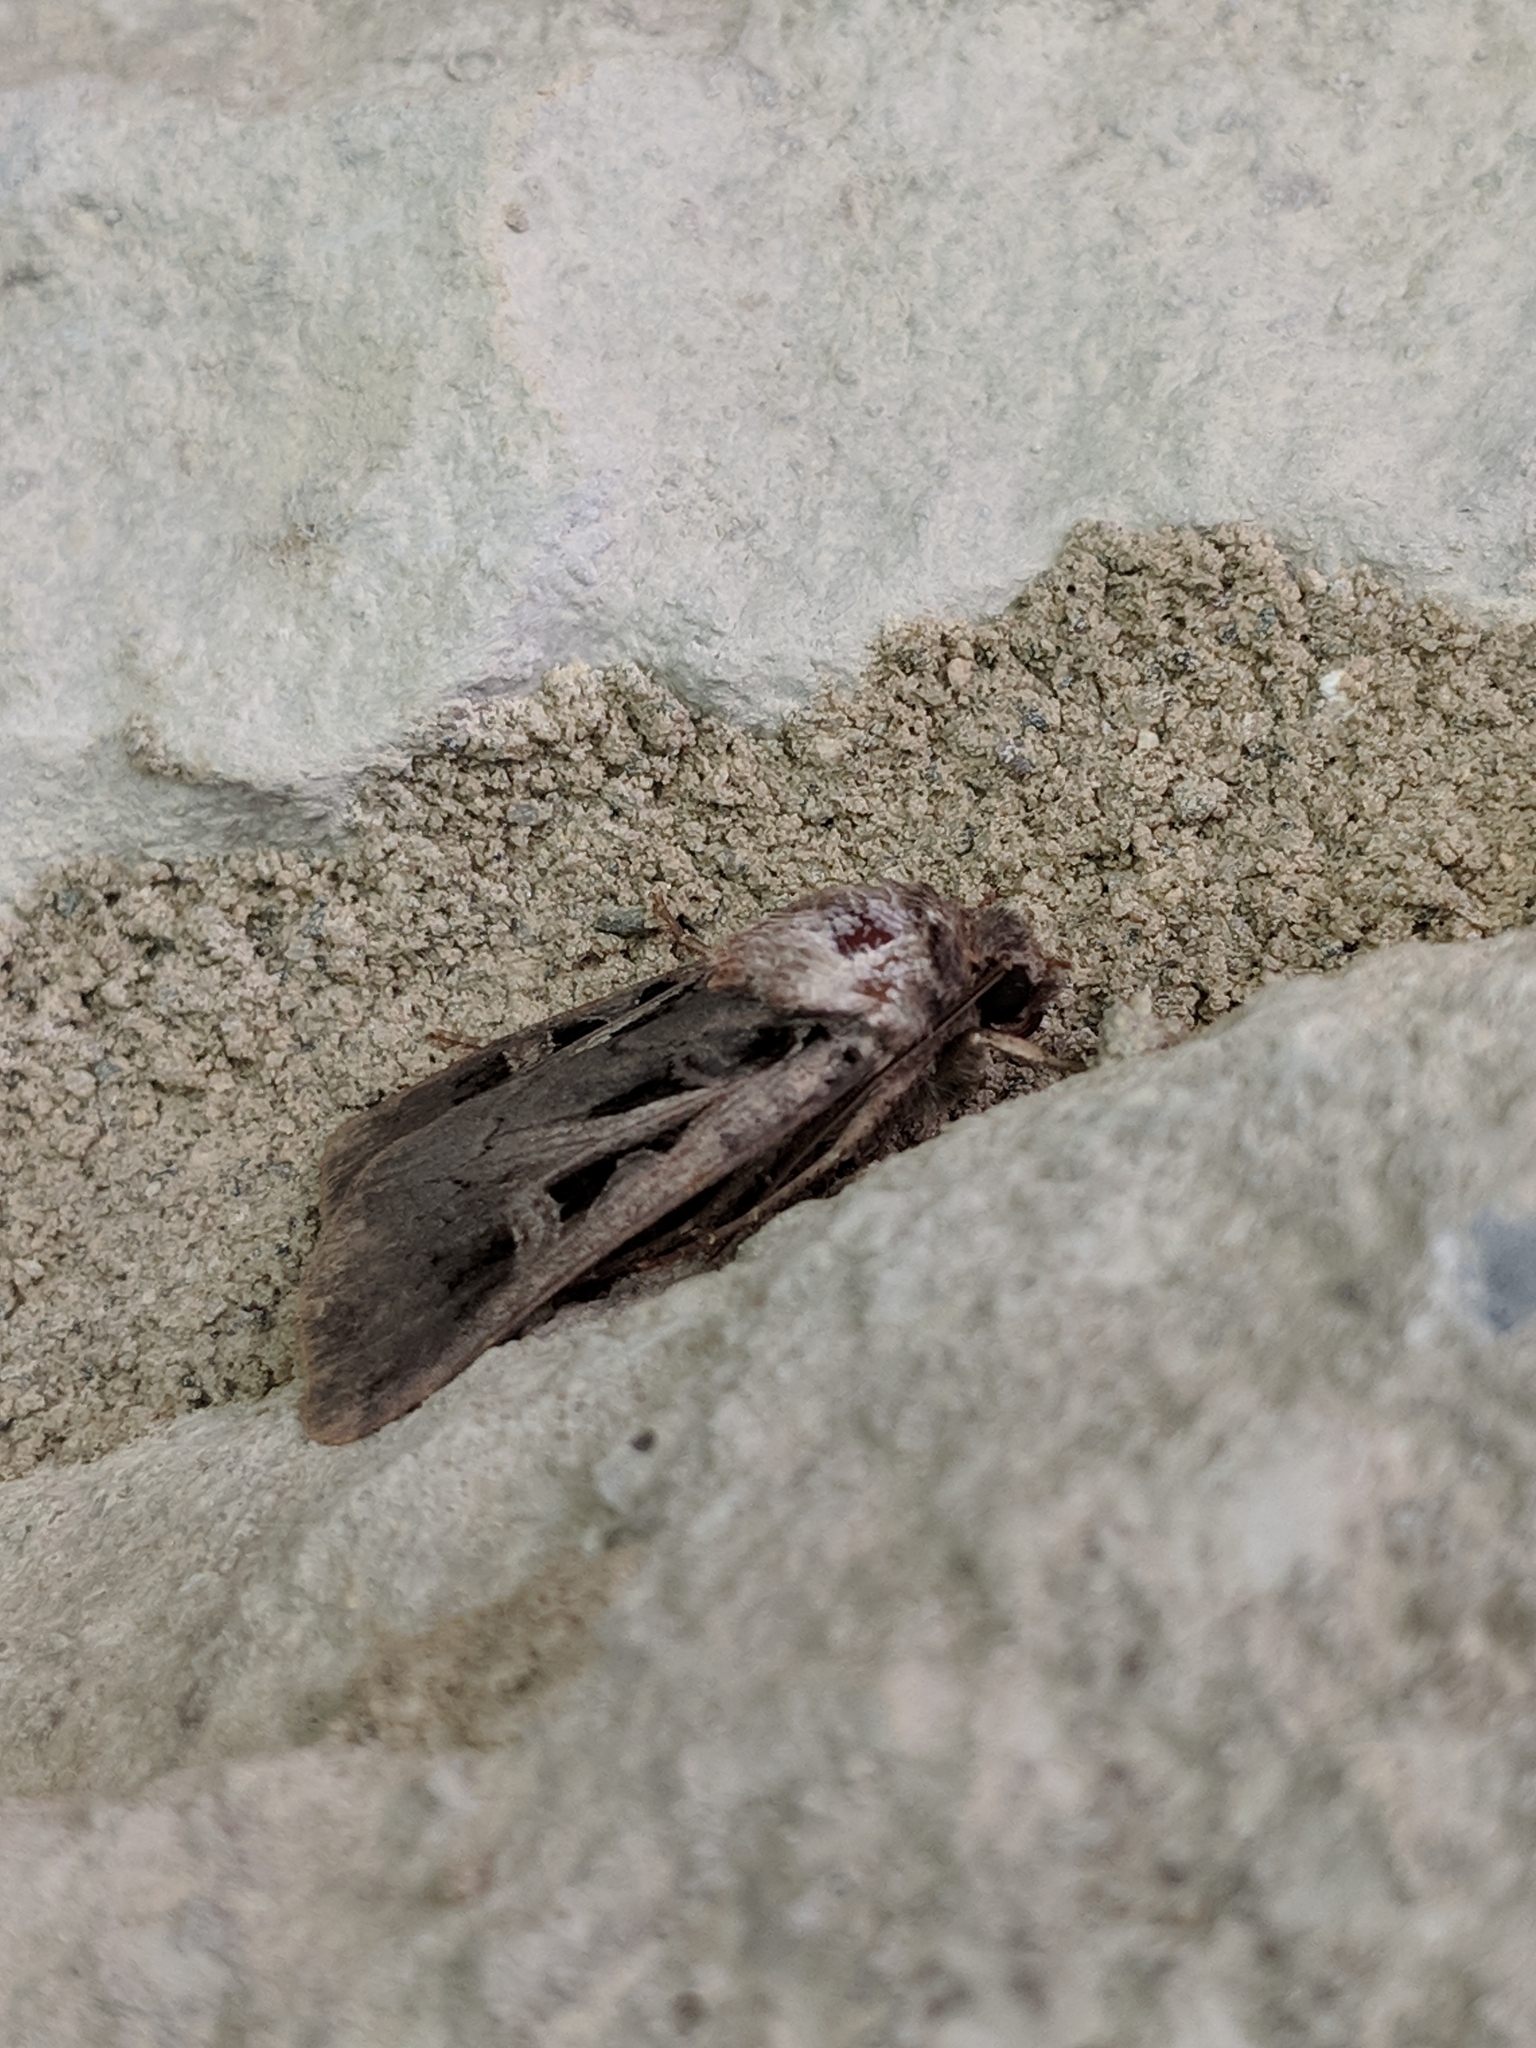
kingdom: Animalia
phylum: Arthropoda
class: Insecta
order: Lepidoptera
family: Noctuidae
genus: Feltia
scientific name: Feltia herilis
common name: Master's dart
